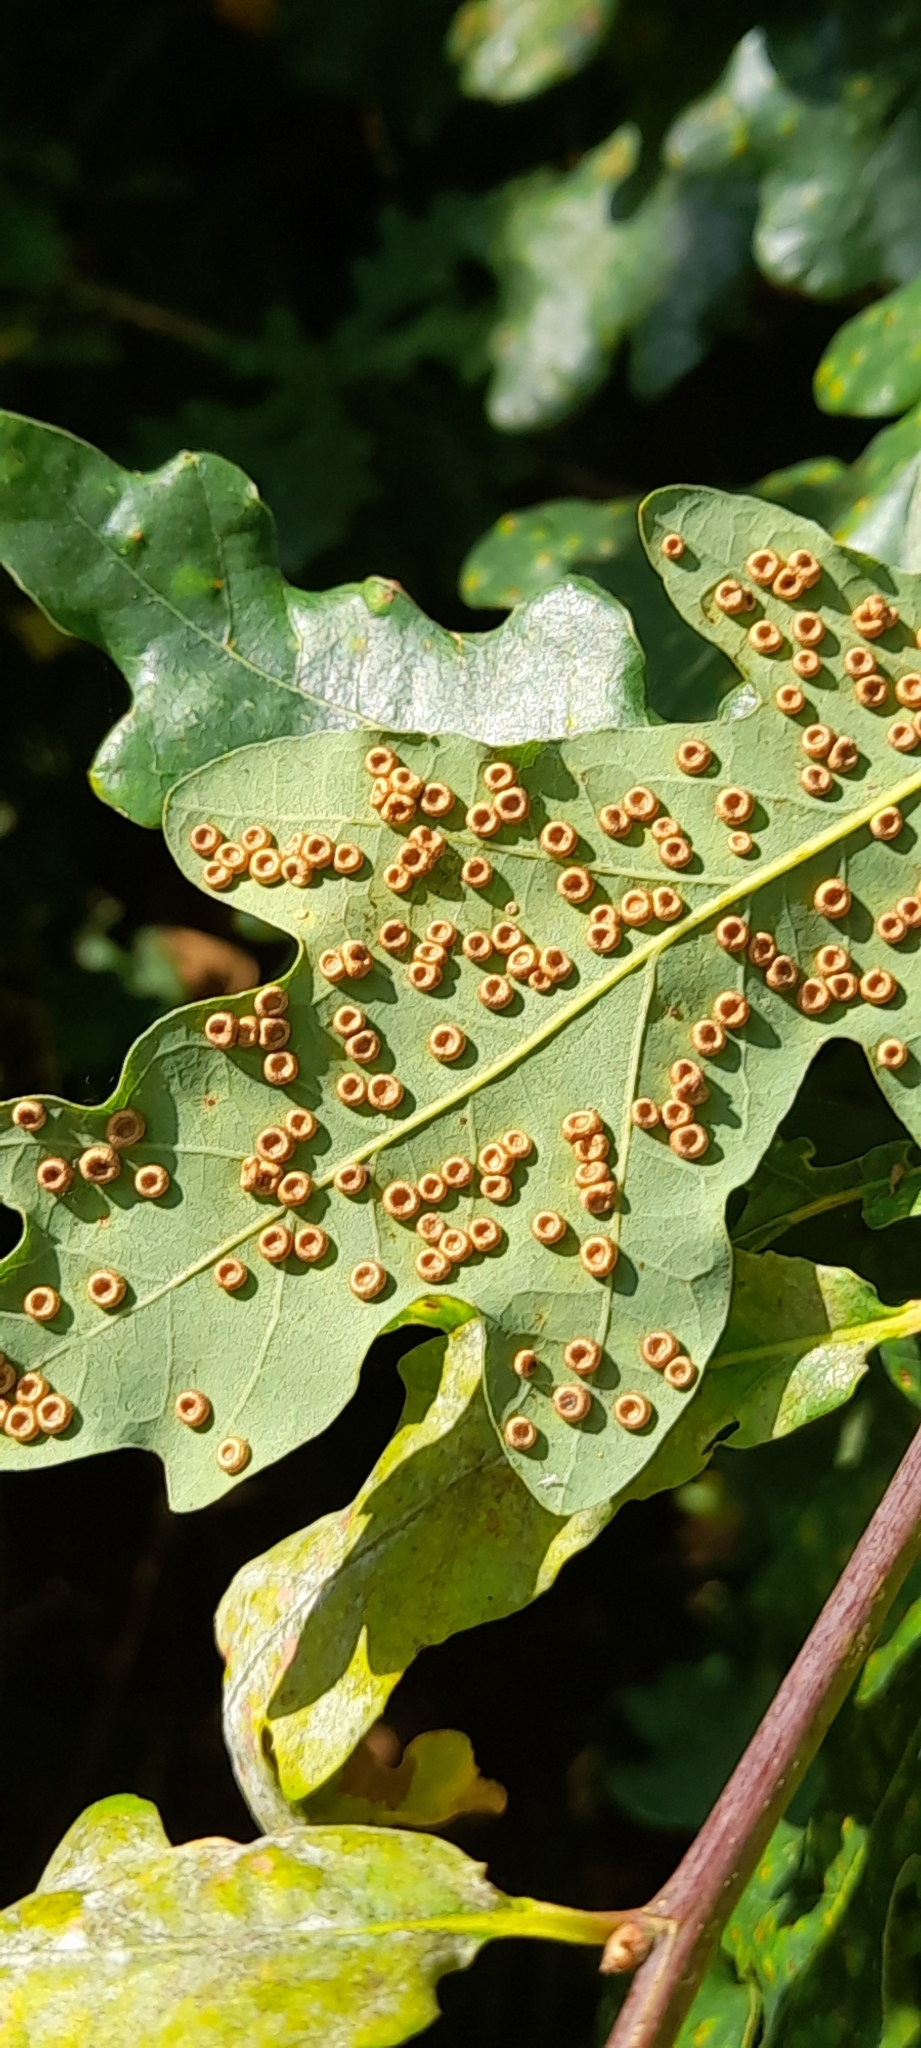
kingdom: Animalia
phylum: Arthropoda
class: Insecta
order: Hymenoptera
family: Cynipidae
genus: Neuroterus
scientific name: Neuroterus numismalis
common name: Silk-button spangle gall
